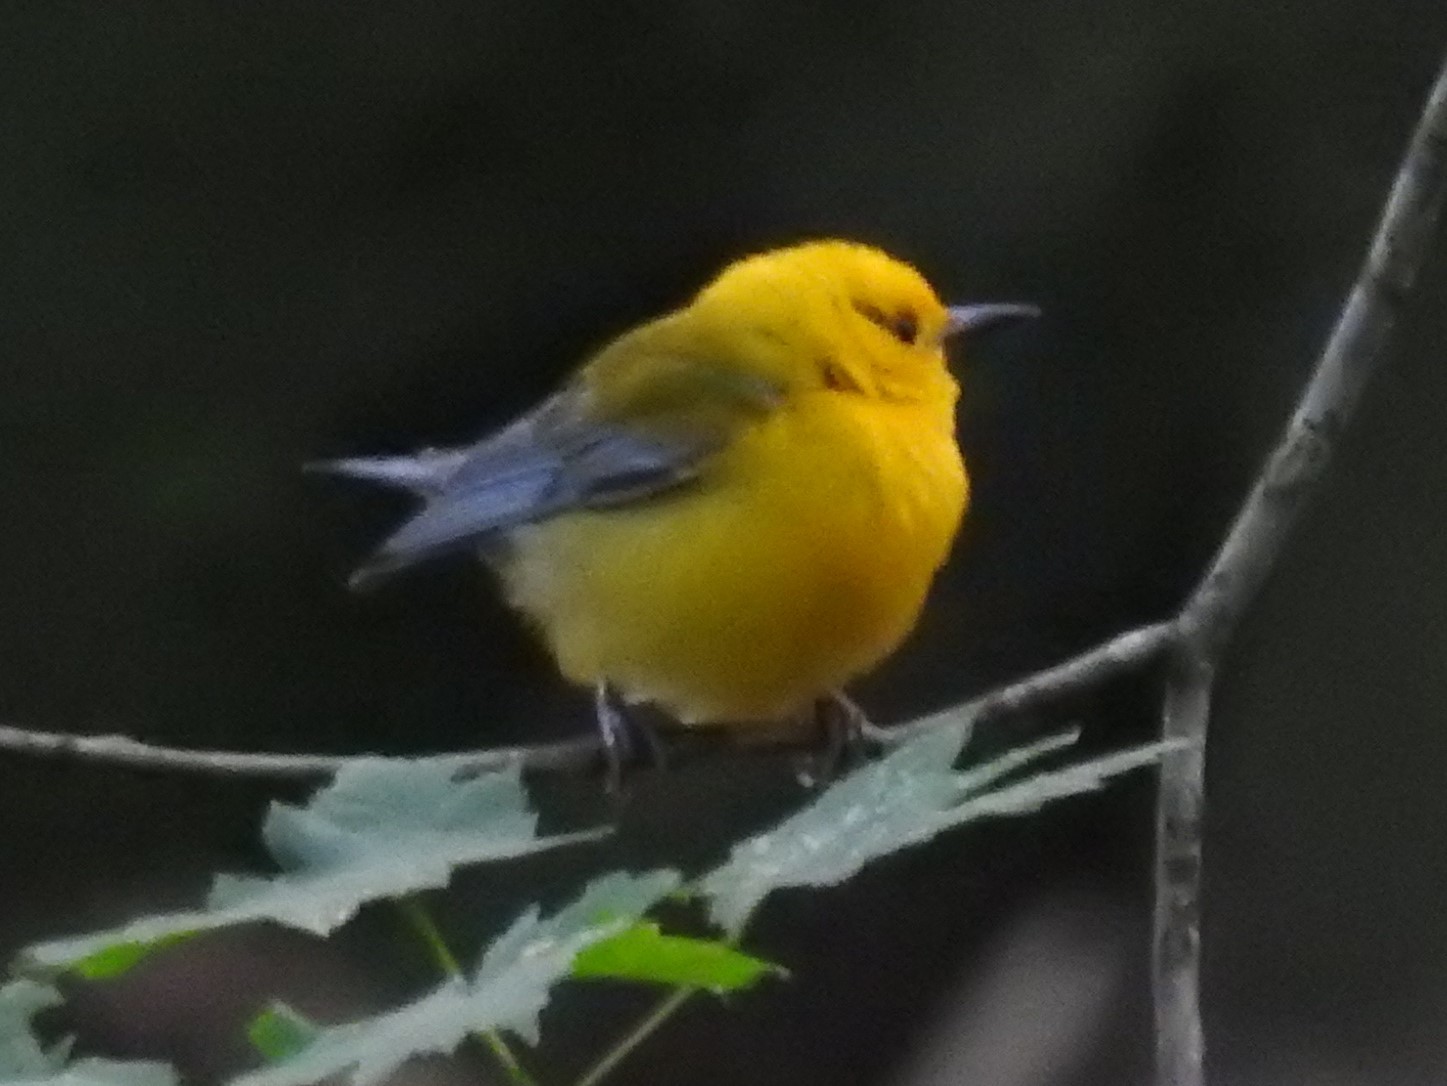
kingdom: Animalia
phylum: Chordata
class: Aves
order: Passeriformes
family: Parulidae
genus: Protonotaria
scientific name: Protonotaria citrea
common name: Prothonotary warbler
